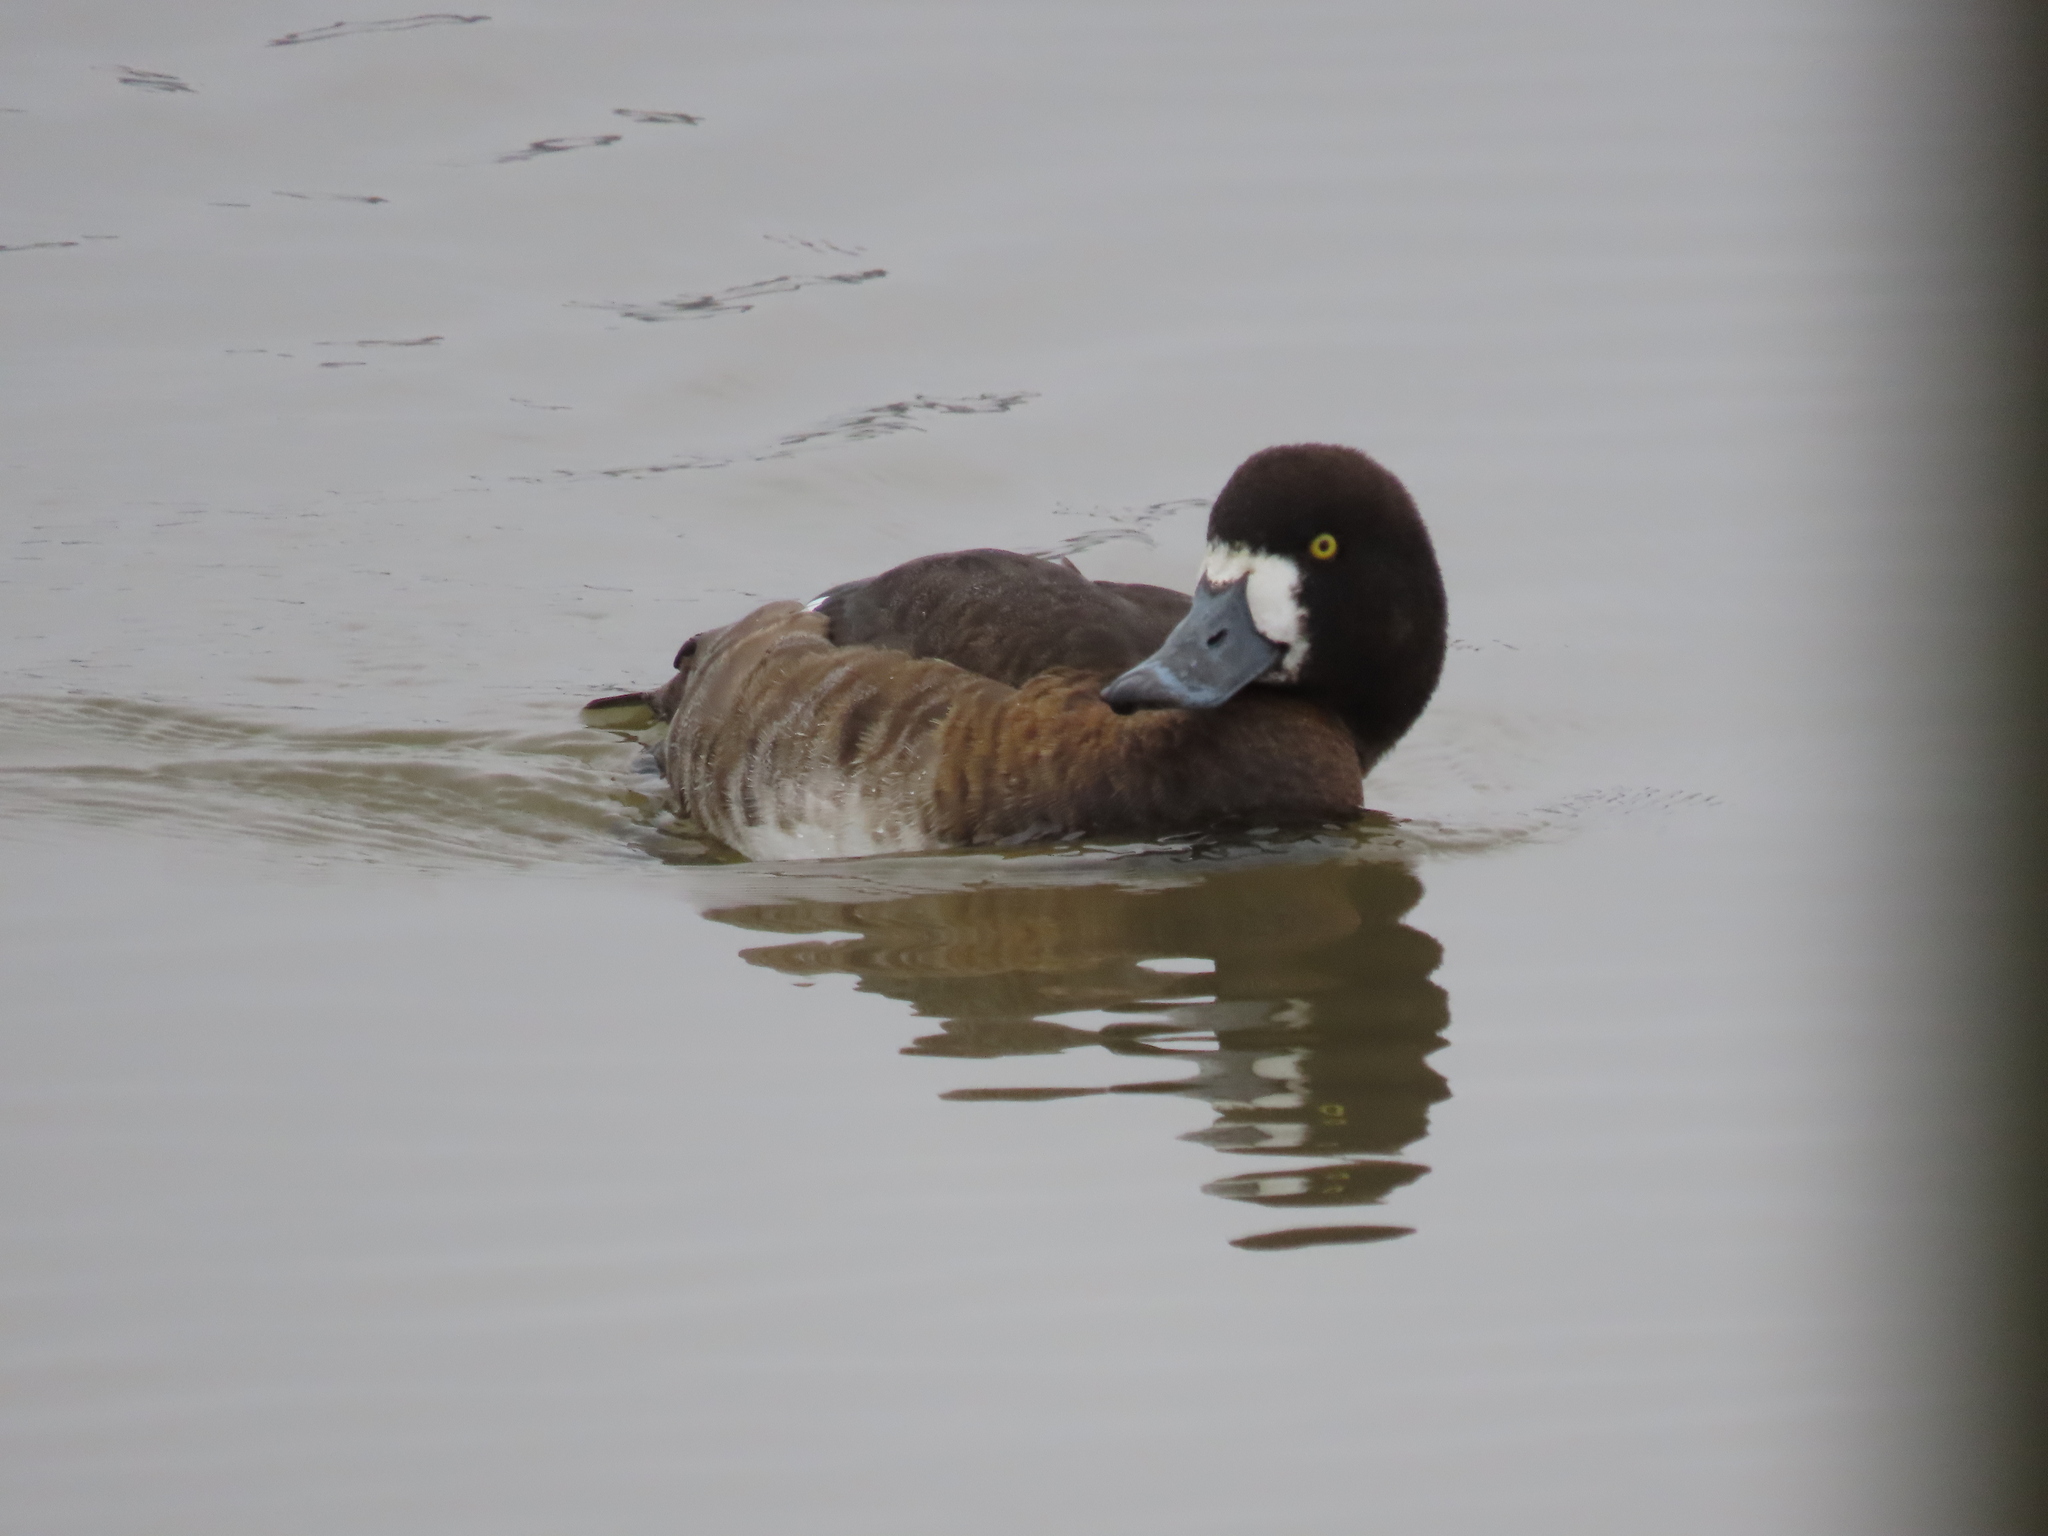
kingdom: Animalia
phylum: Chordata
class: Aves
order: Anseriformes
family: Anatidae
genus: Aythya
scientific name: Aythya marila
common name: Greater scaup
